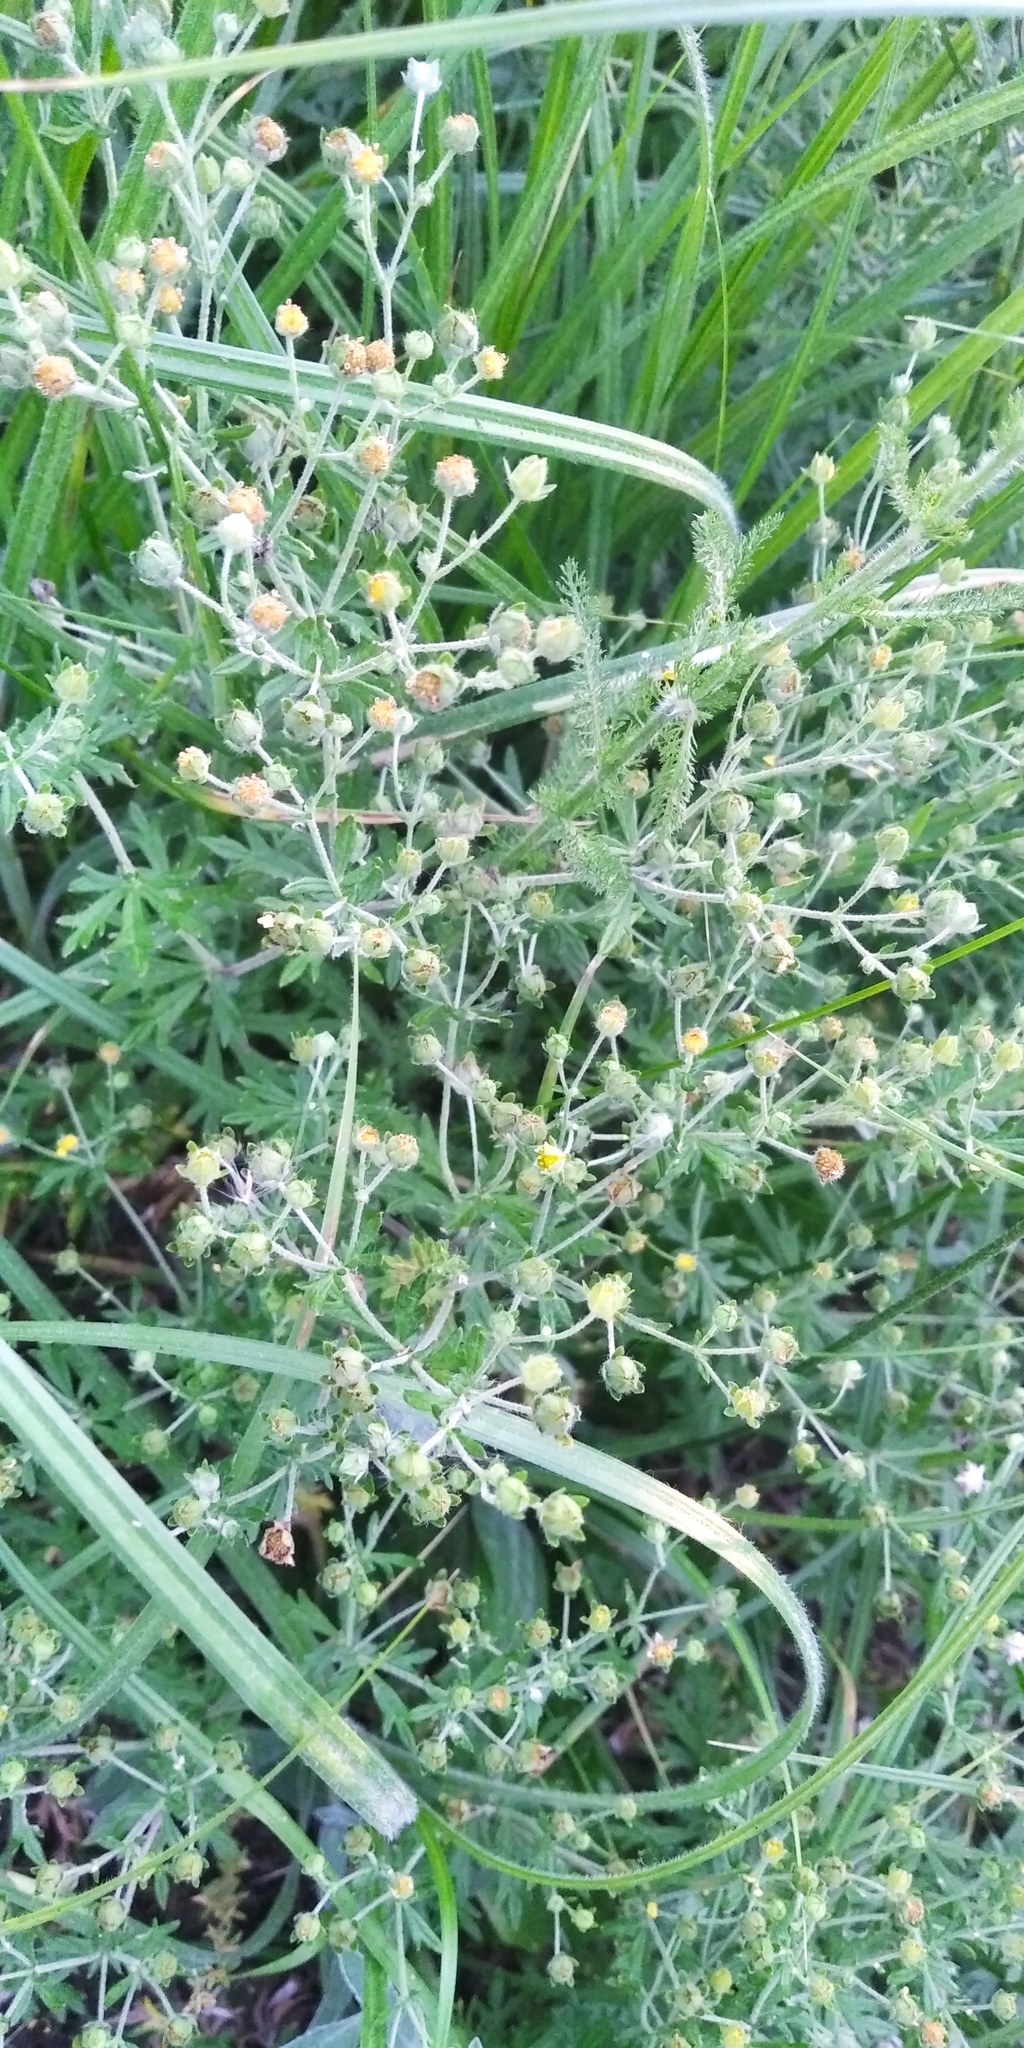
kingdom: Plantae
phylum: Tracheophyta
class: Magnoliopsida
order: Rosales
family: Rosaceae
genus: Potentilla
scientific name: Potentilla argentea
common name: Hoary cinquefoil
